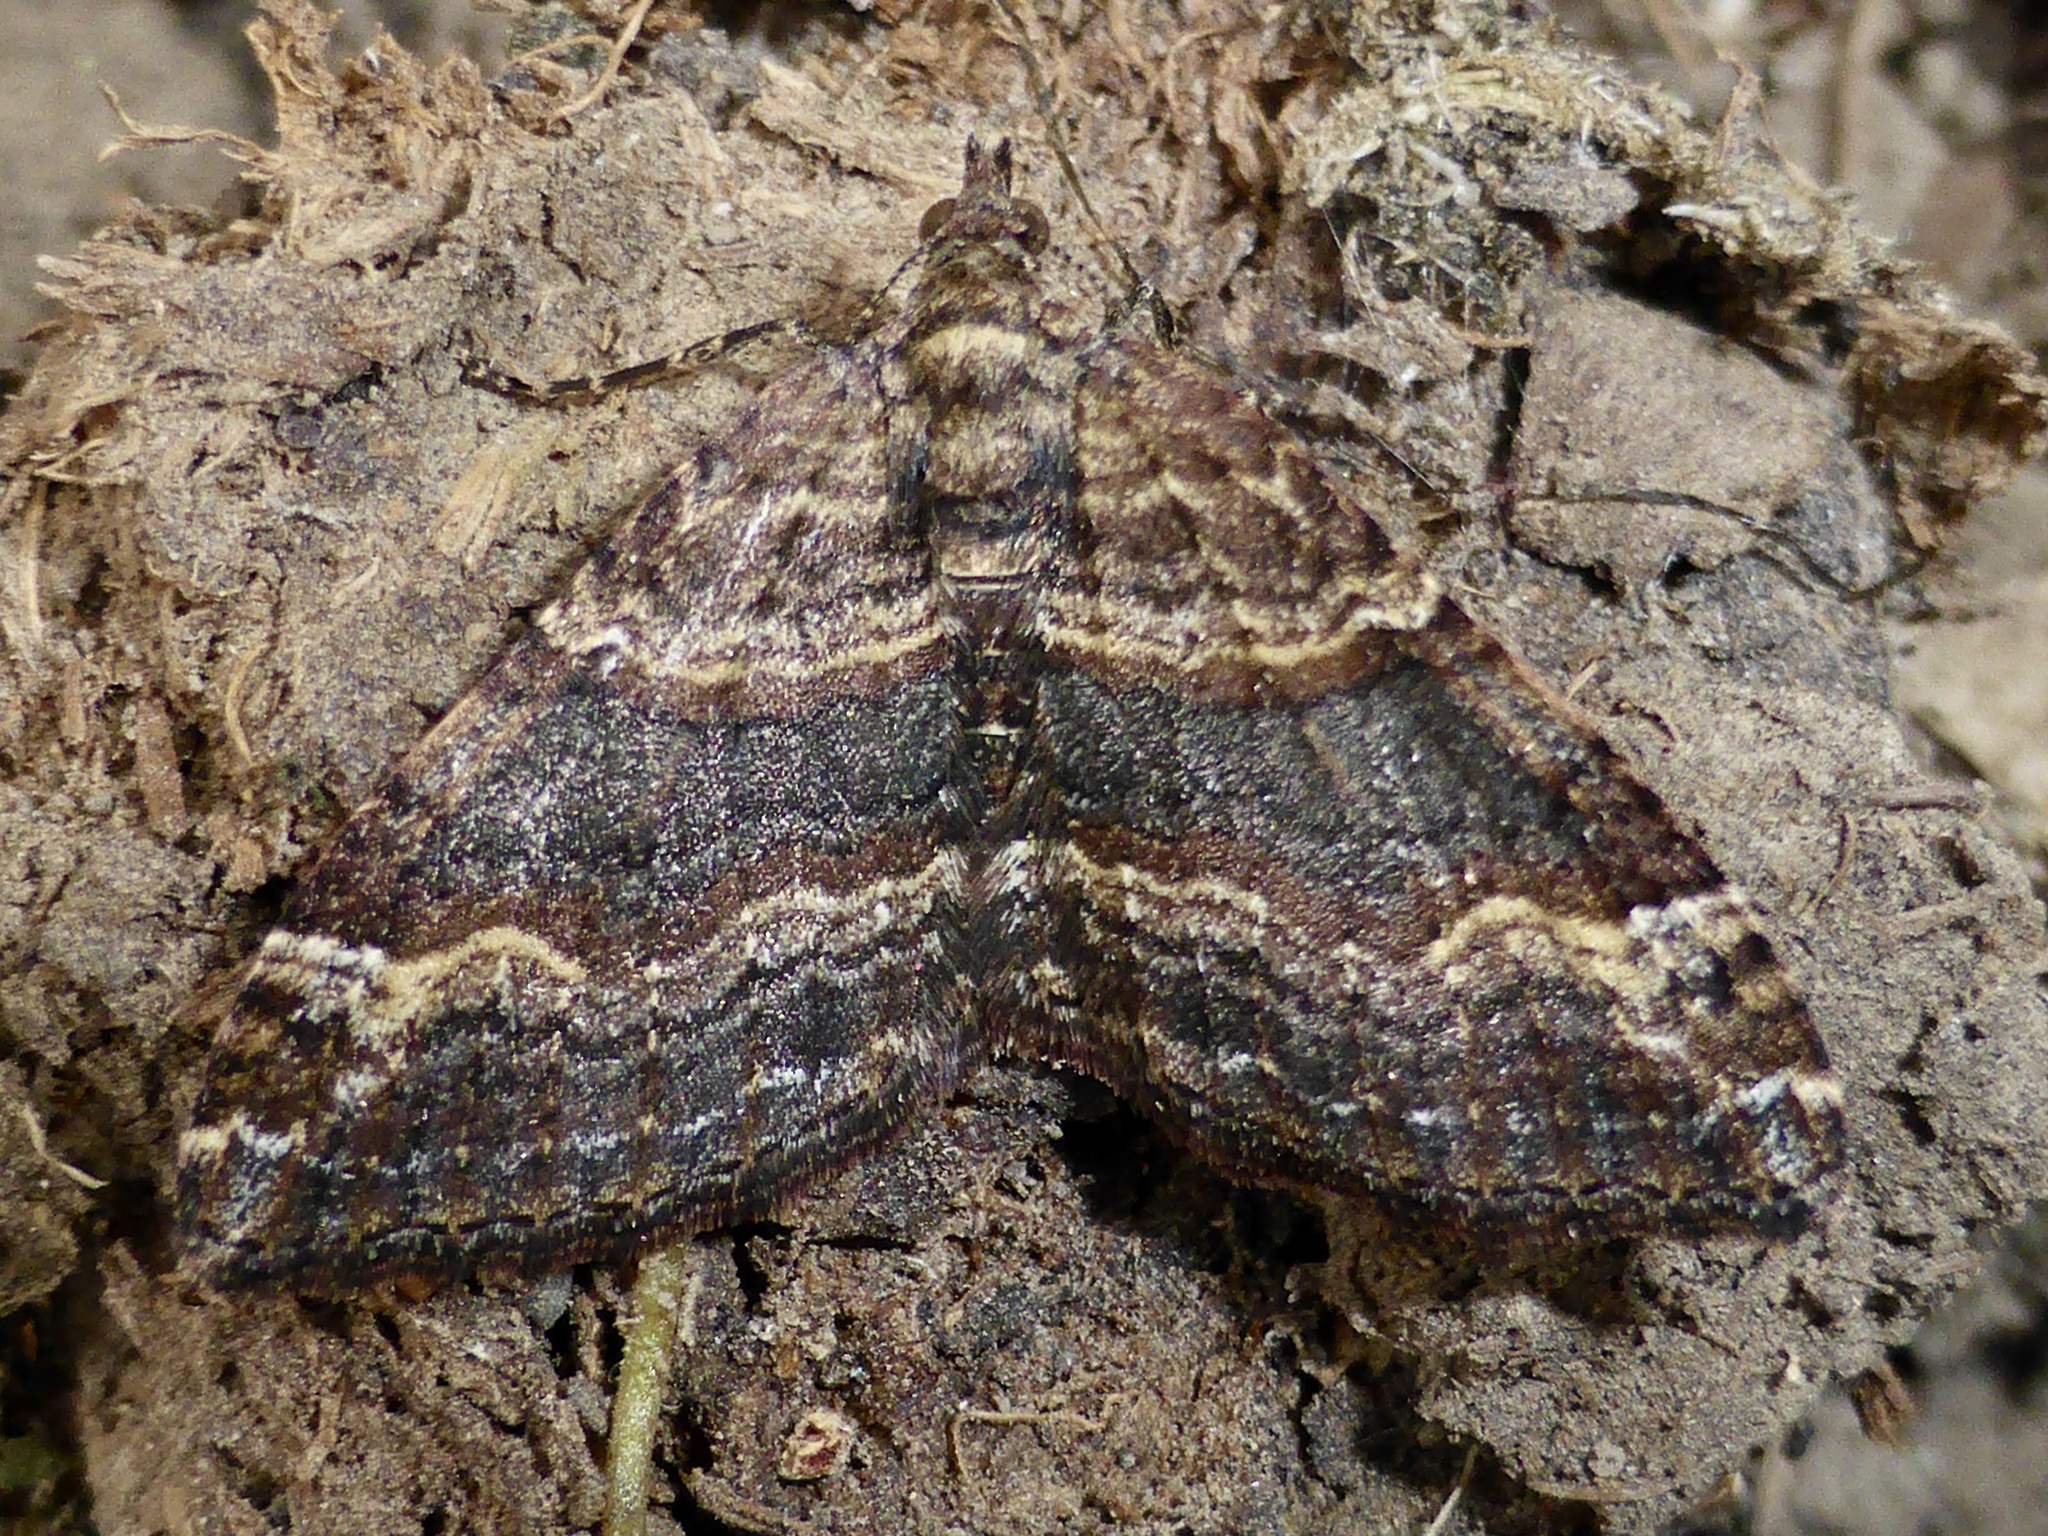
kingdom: Animalia
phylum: Arthropoda
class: Insecta
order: Lepidoptera
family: Geometridae
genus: Epyaxa
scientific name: Epyaxa lucidata
